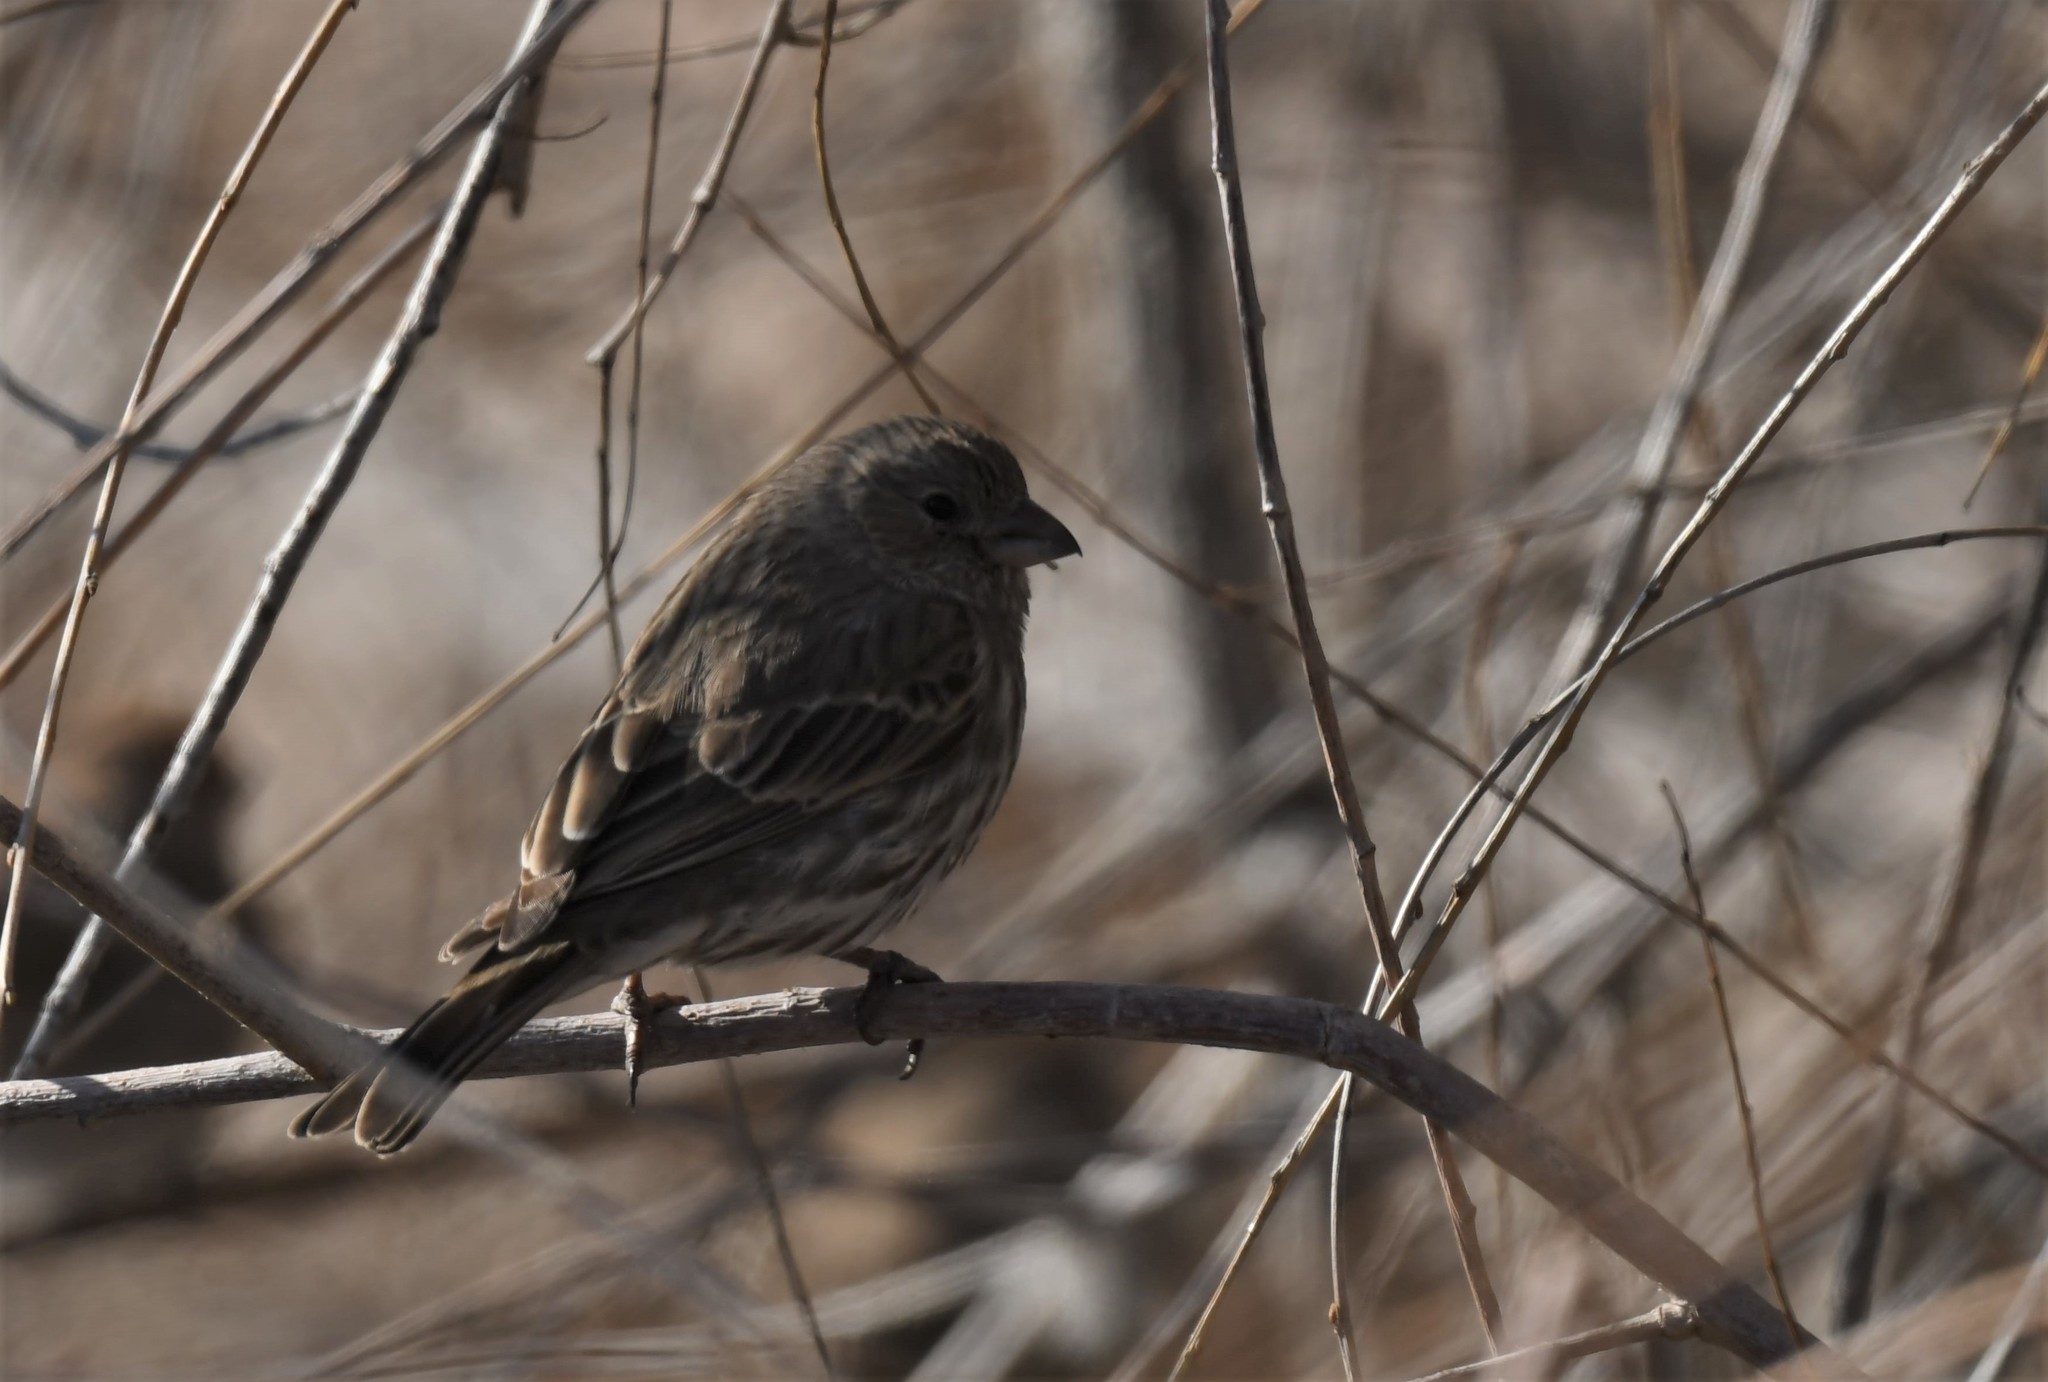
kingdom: Animalia
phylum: Chordata
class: Aves
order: Passeriformes
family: Fringillidae
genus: Haemorhous
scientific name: Haemorhous mexicanus
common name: House finch
